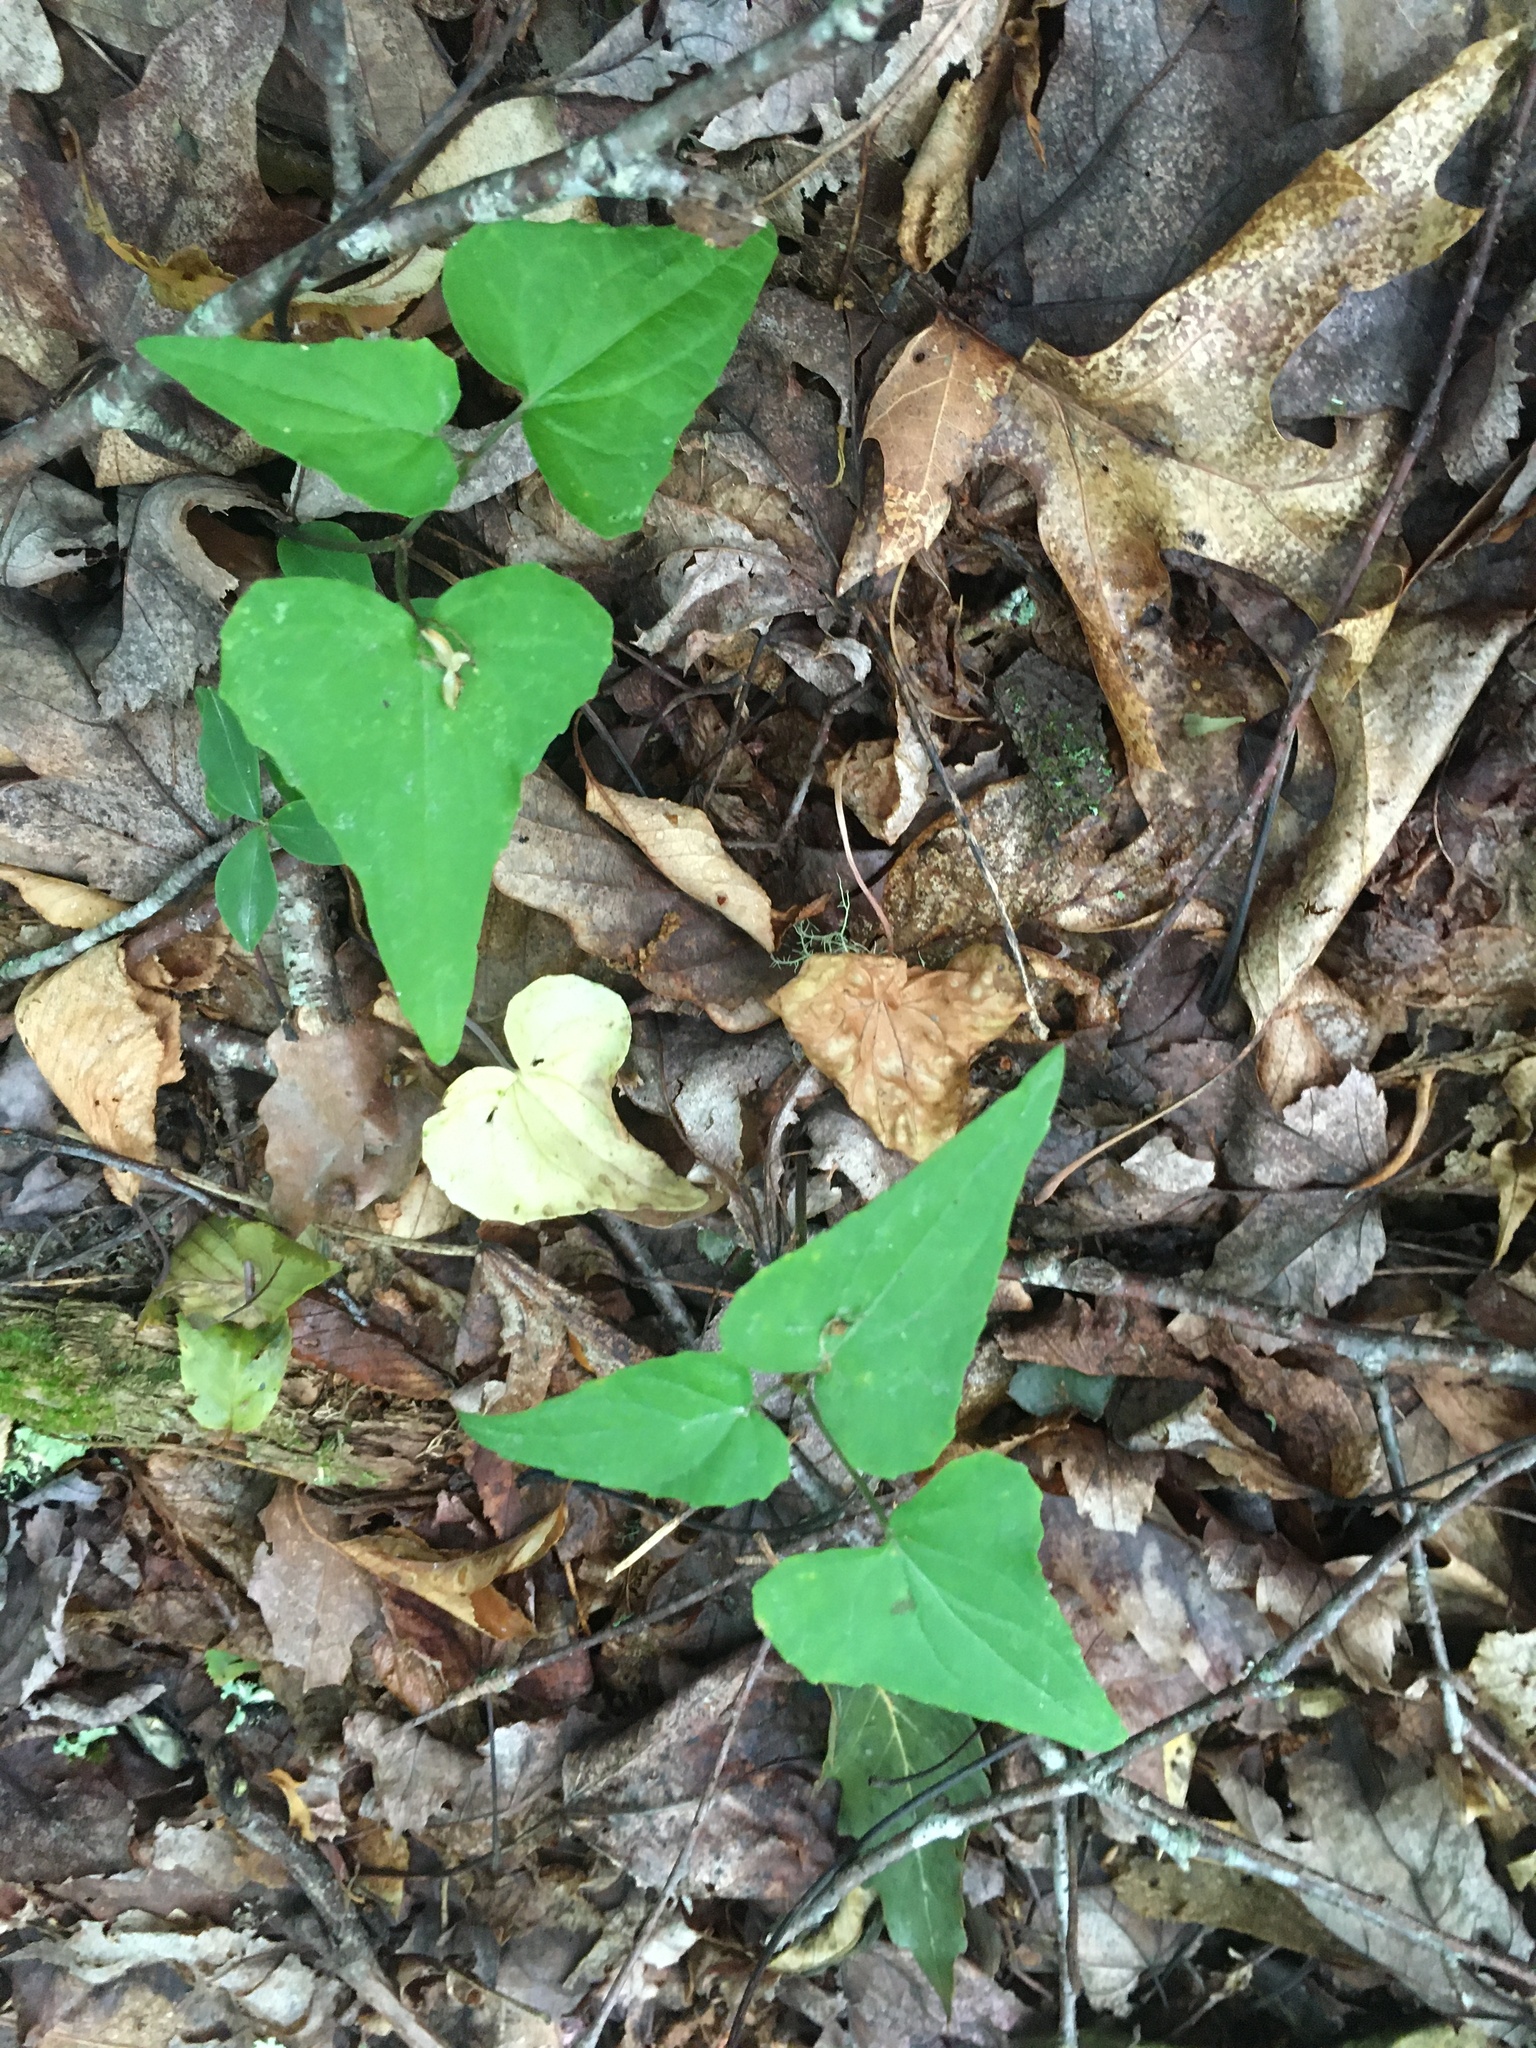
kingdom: Plantae
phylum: Tracheophyta
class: Magnoliopsida
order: Malpighiales
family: Violaceae
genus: Viola
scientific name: Viola hastata
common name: Spear-leaf violet
